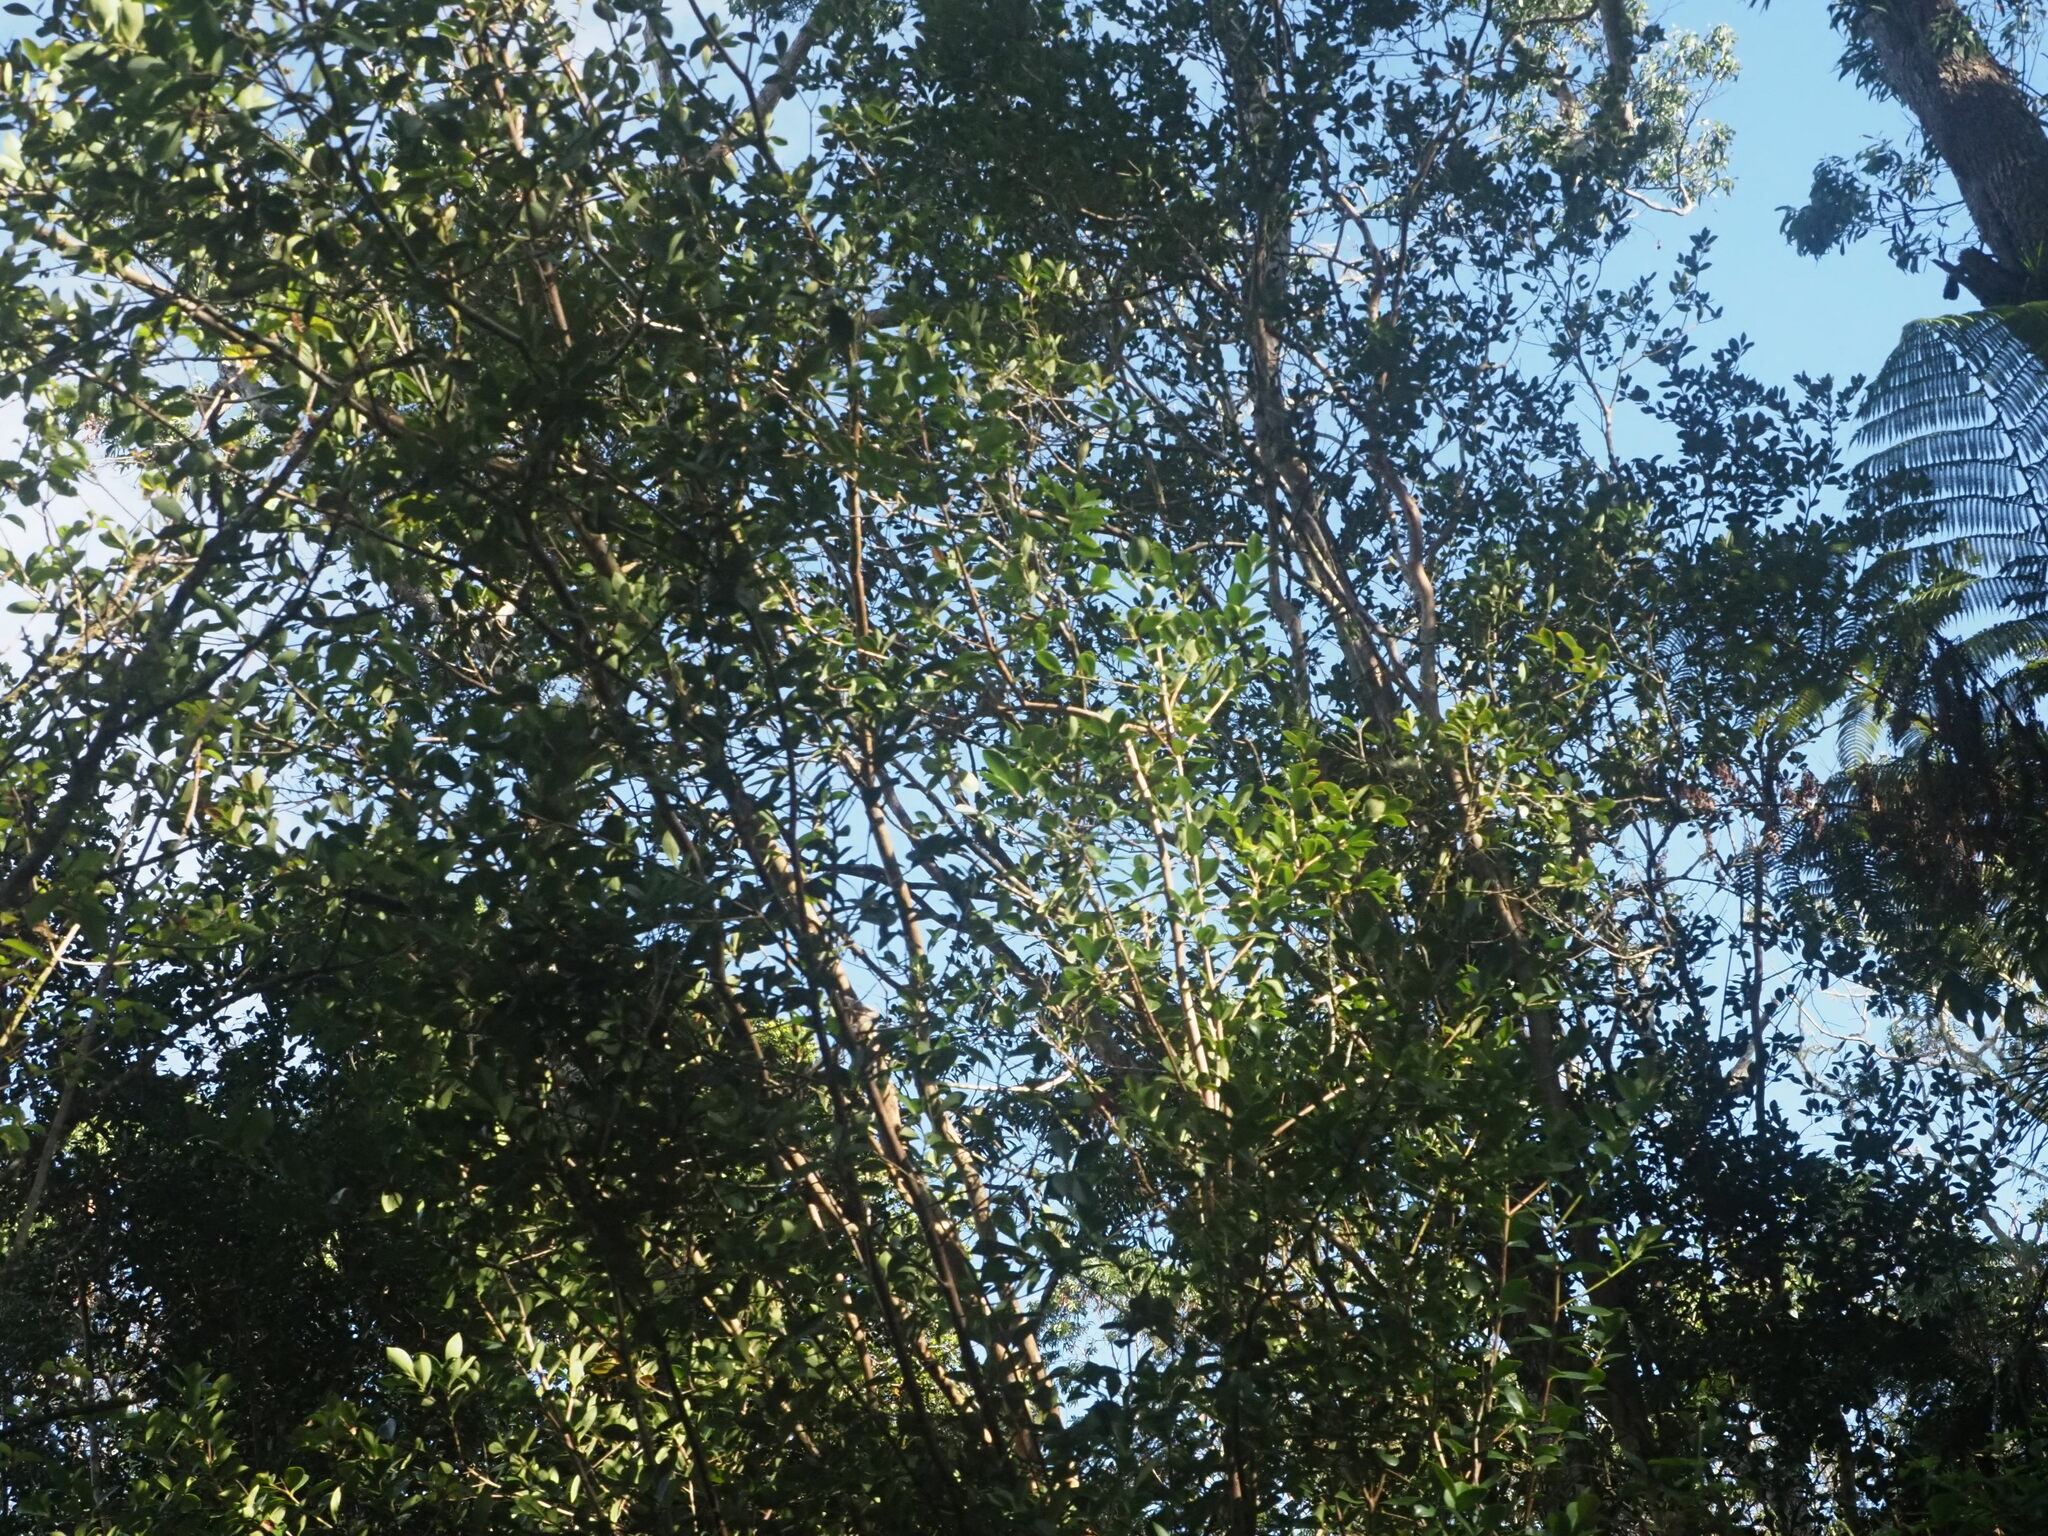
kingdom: Plantae
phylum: Tracheophyta
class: Magnoliopsida
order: Myrtales
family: Myrtaceae
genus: Psidium
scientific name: Psidium cattleianum
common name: Strawberry guava
